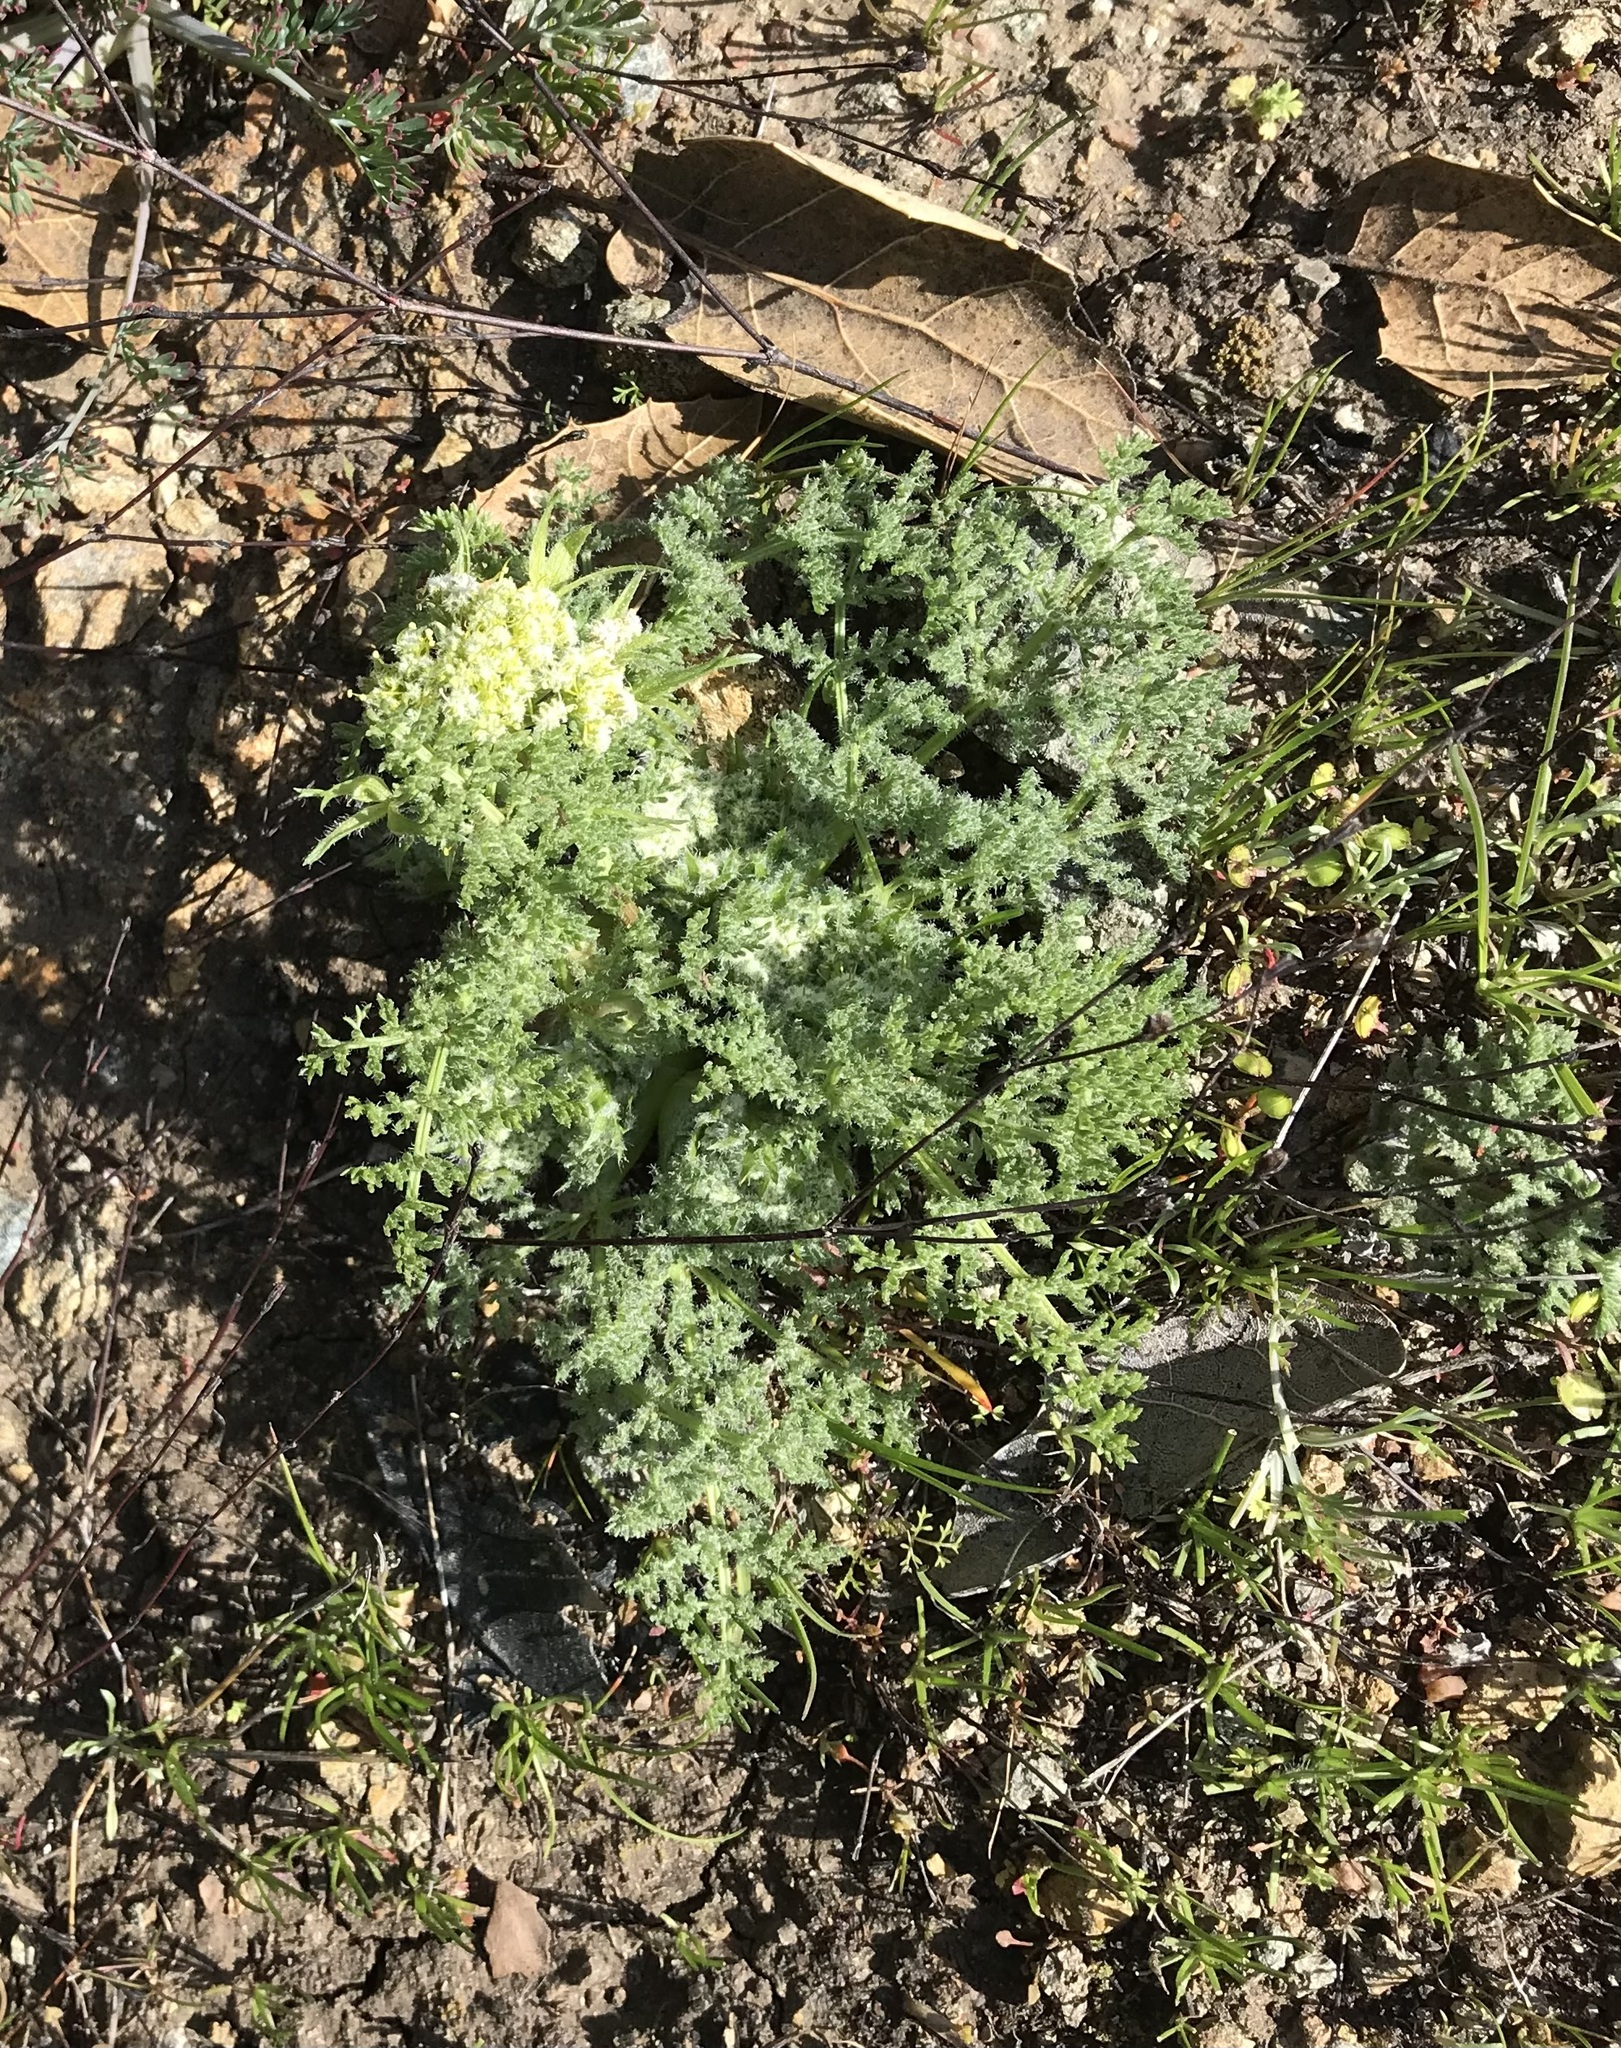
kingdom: Plantae
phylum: Tracheophyta
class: Magnoliopsida
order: Apiales
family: Apiaceae
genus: Lomatium
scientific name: Lomatium dasycarpum
